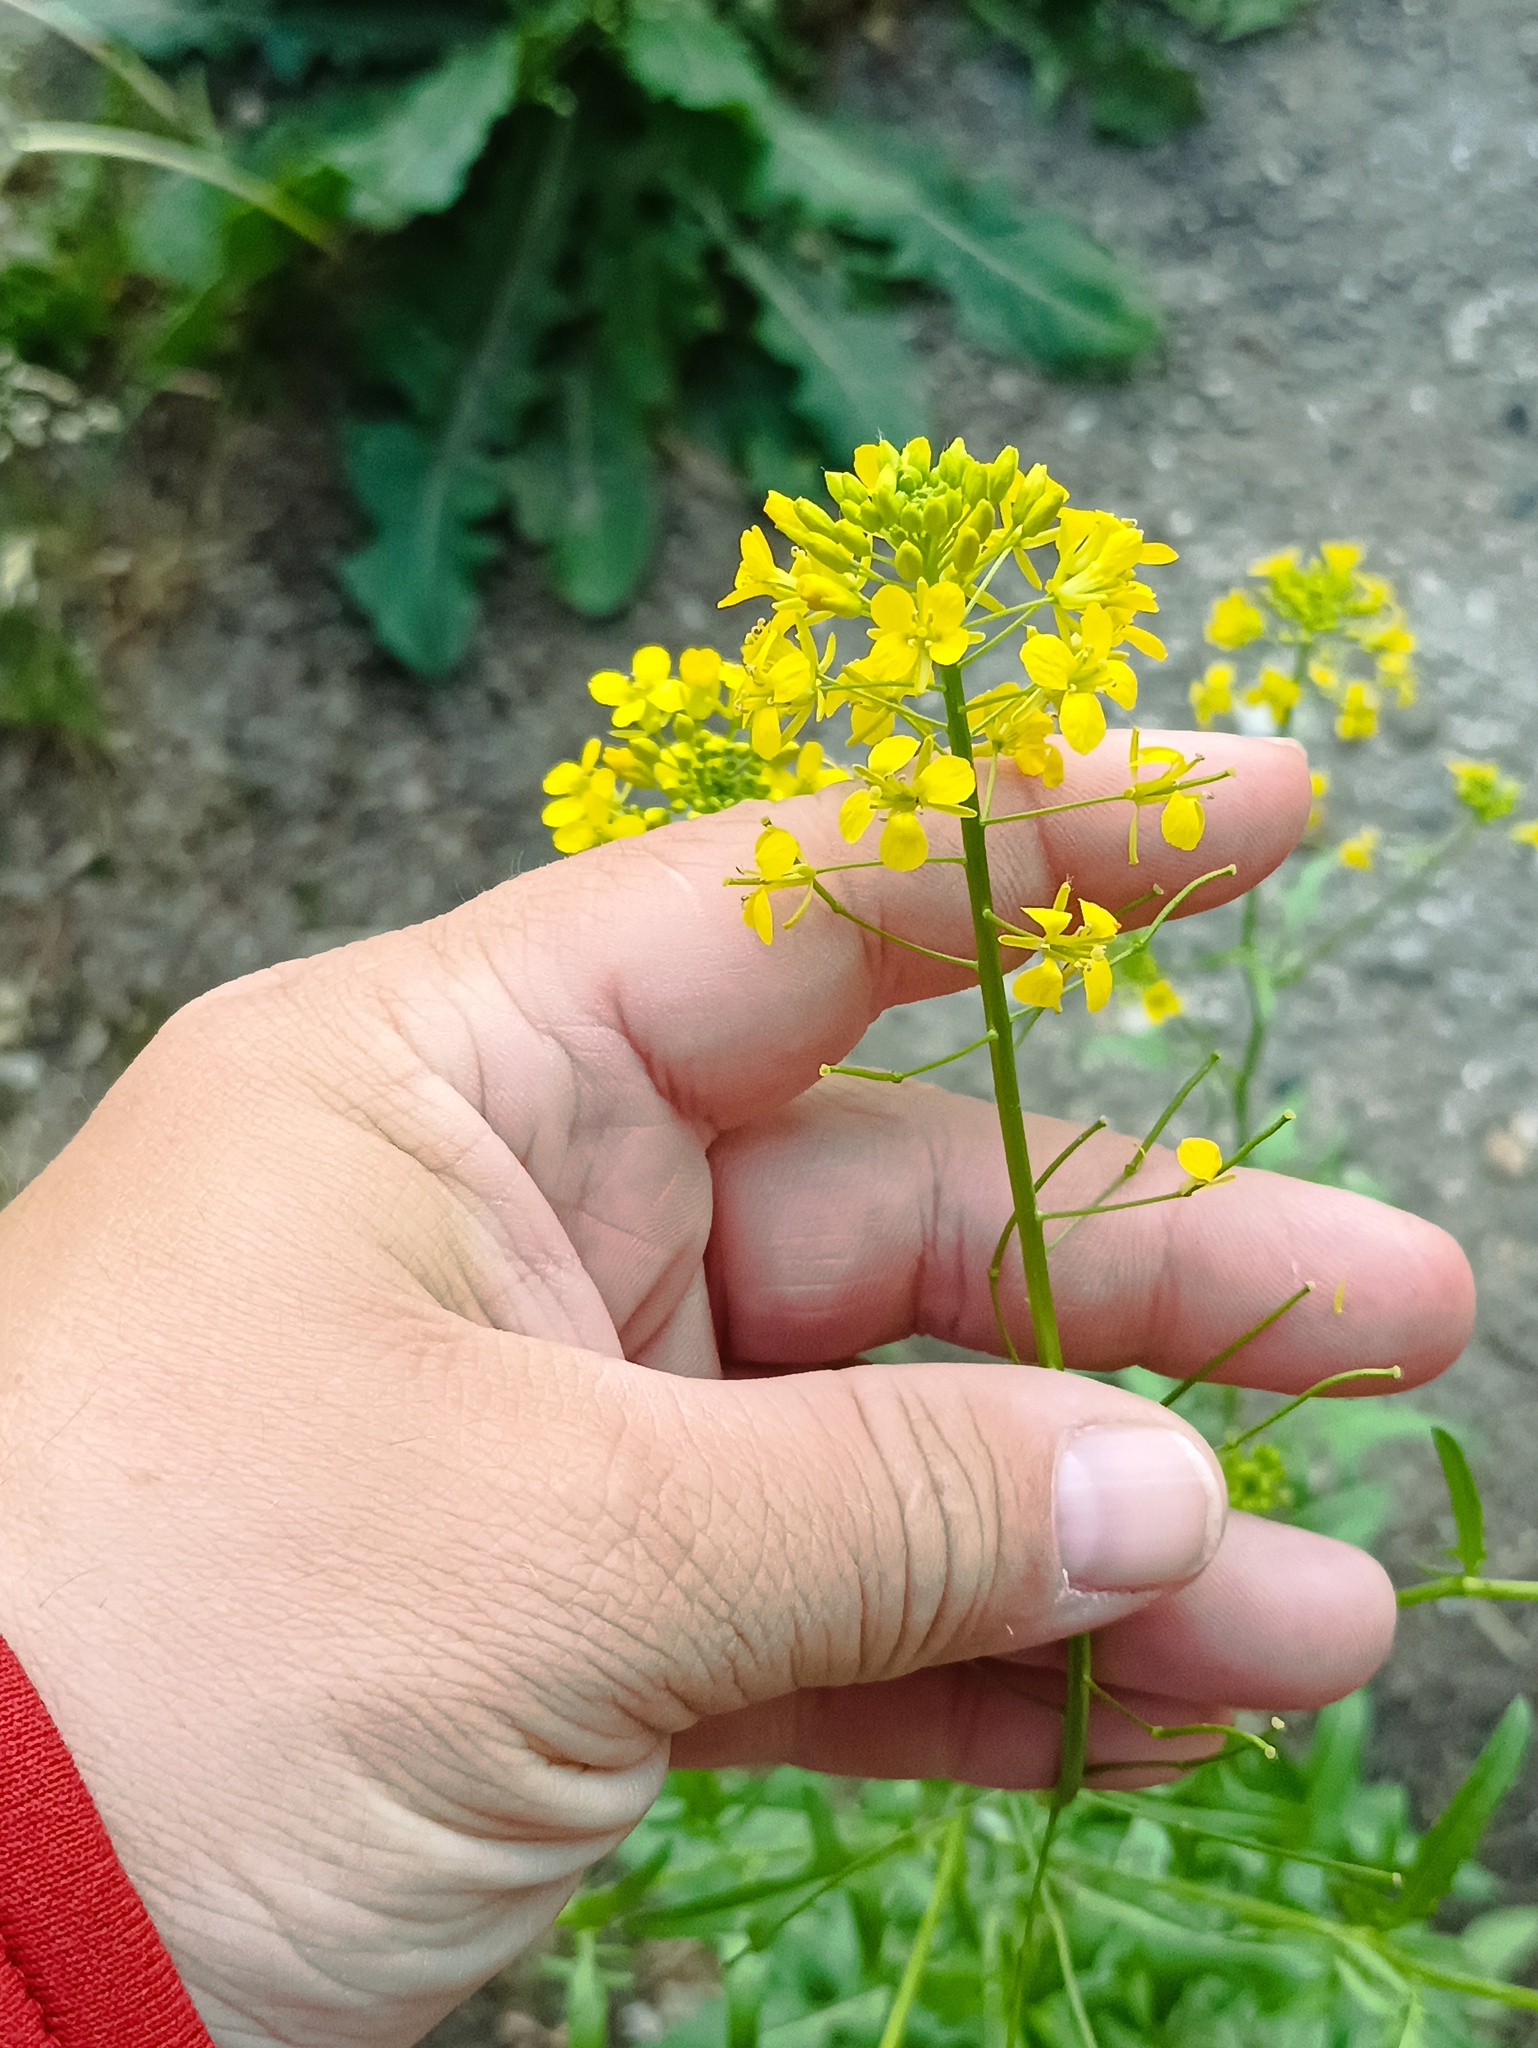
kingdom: Plantae
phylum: Tracheophyta
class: Magnoliopsida
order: Brassicales
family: Brassicaceae
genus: Sisymbrium
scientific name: Sisymbrium loeselii
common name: False london-rocket
